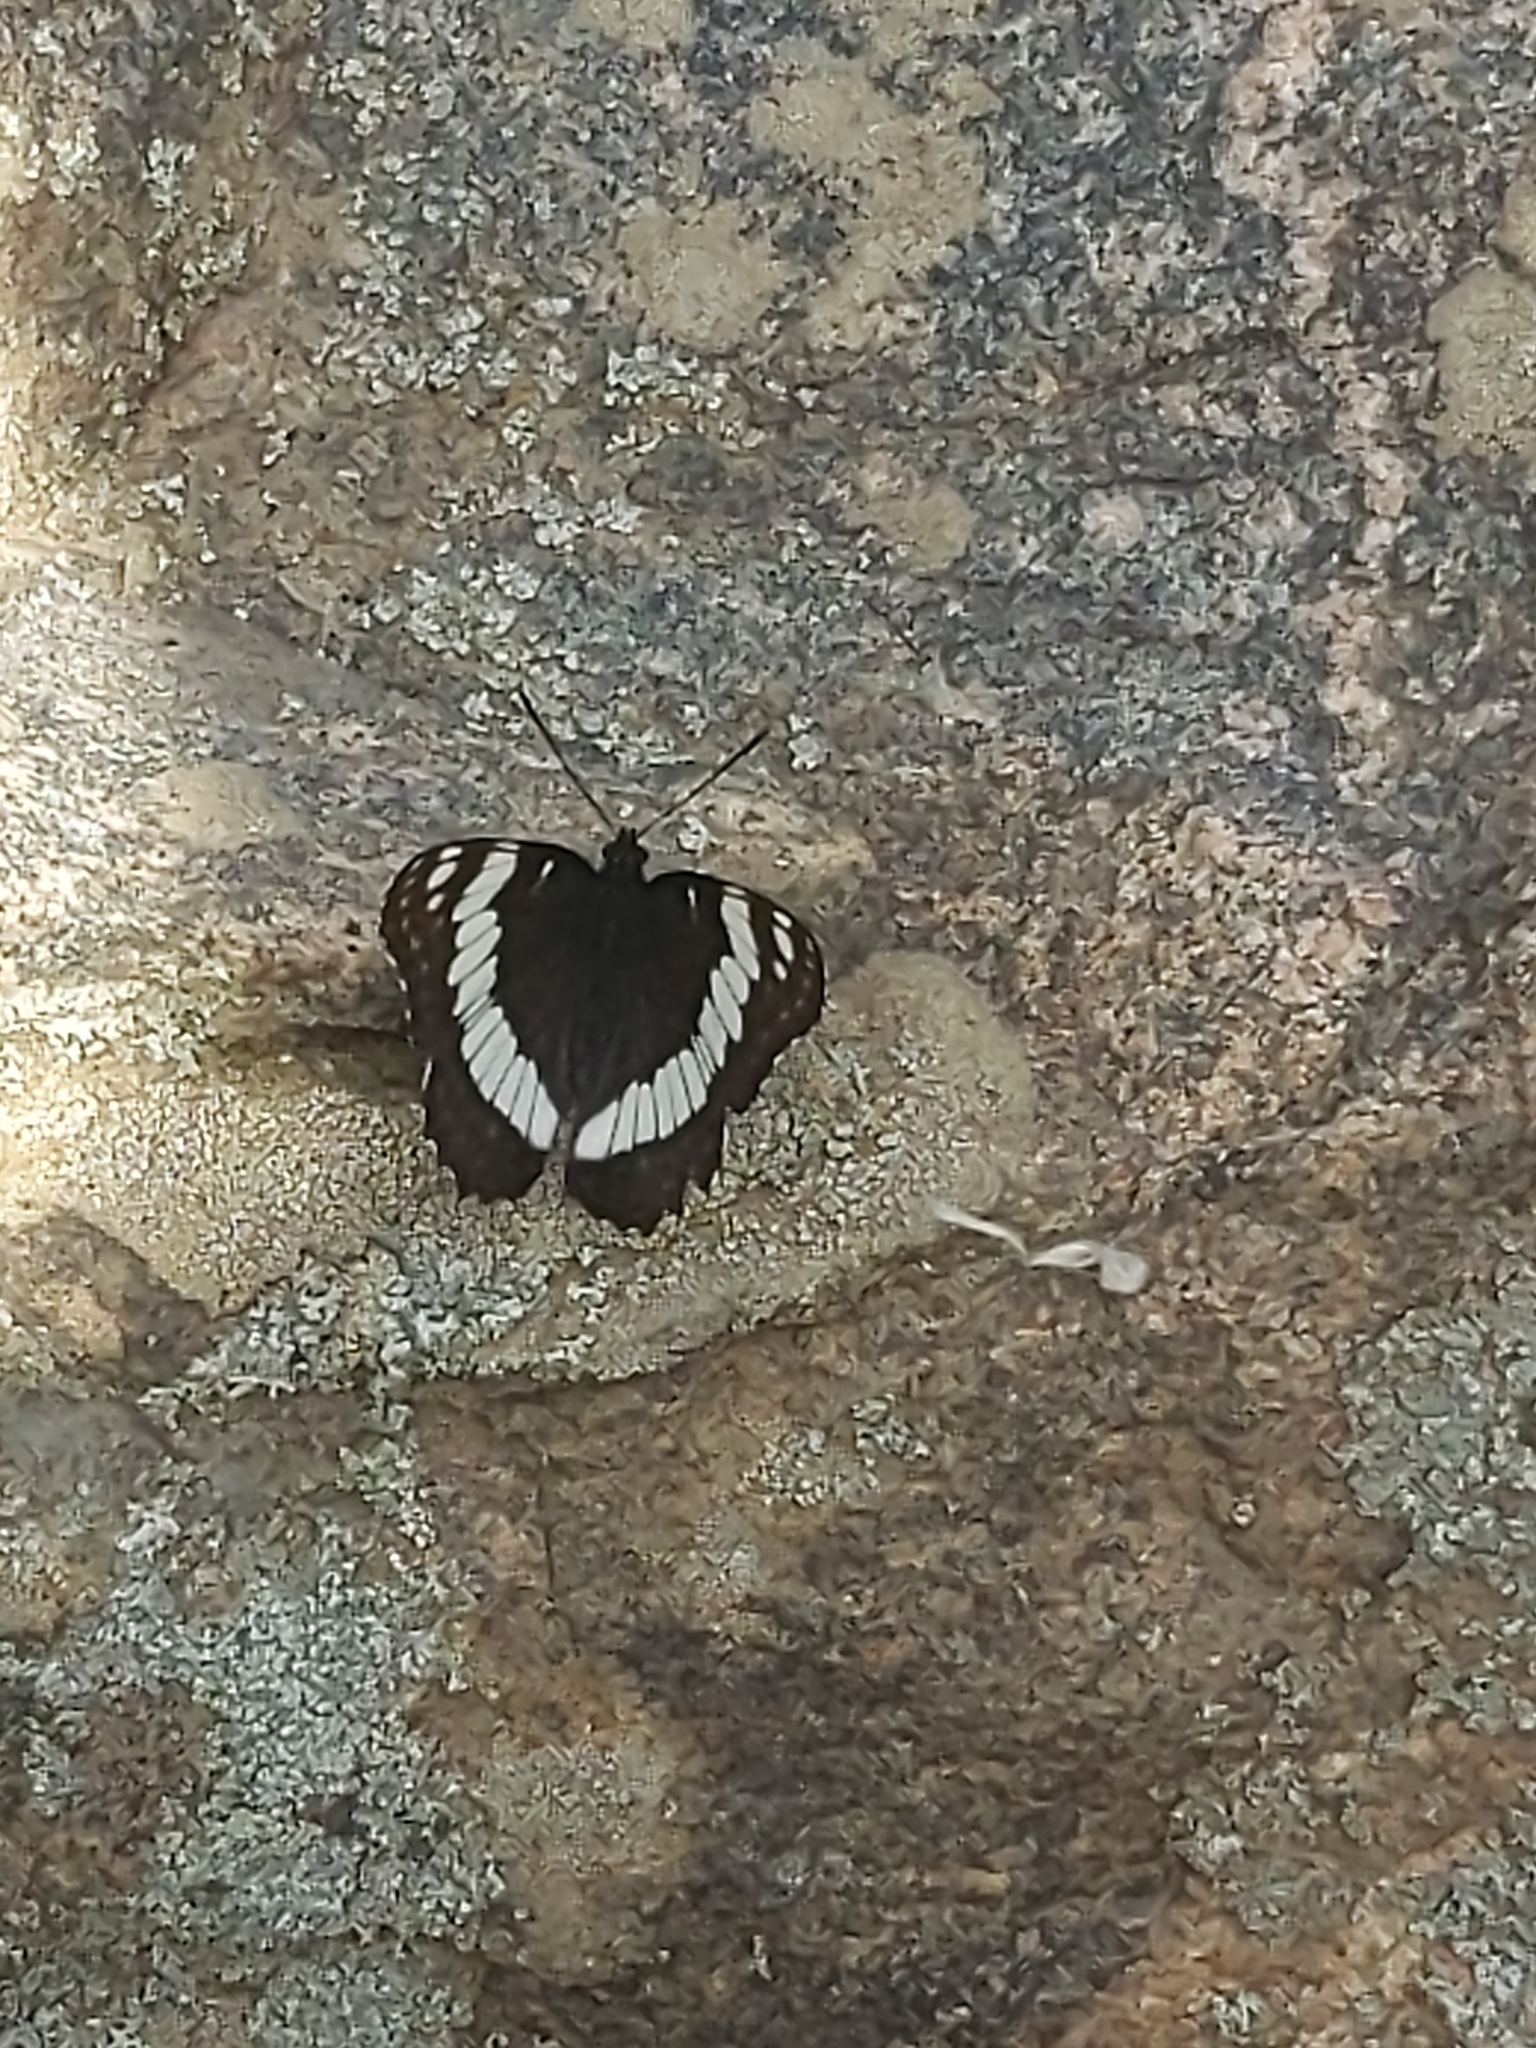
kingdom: Animalia
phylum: Arthropoda
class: Insecta
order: Lepidoptera
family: Nymphalidae
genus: Limenitis
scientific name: Limenitis weidemeyerii
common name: Weidemeyer's admiral
